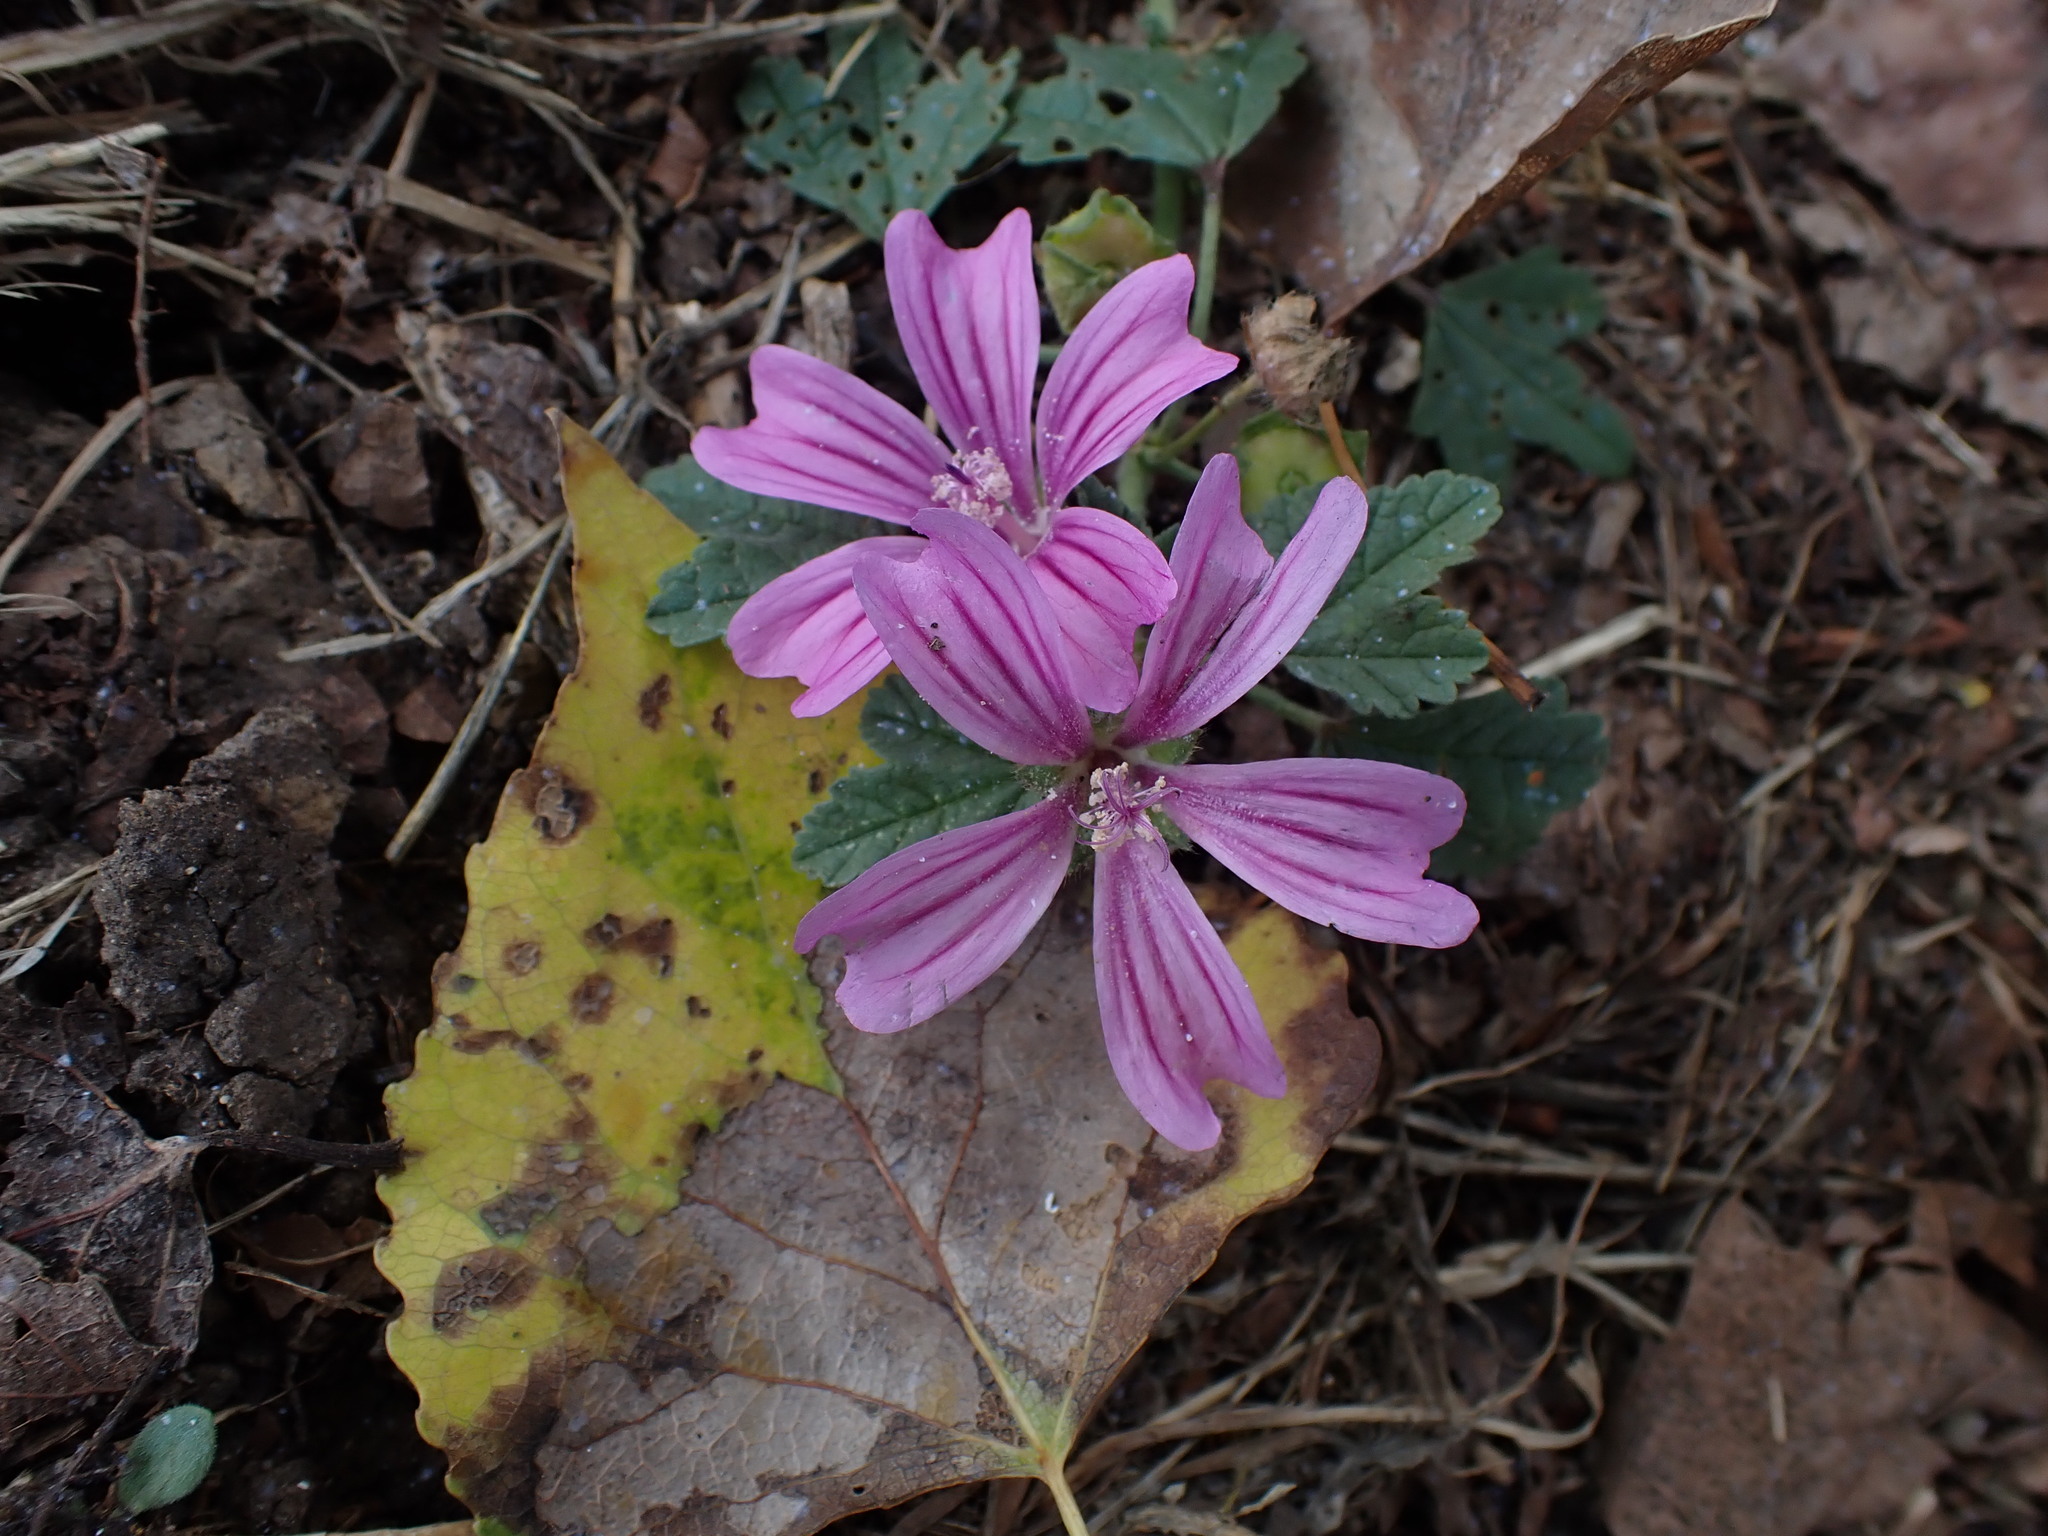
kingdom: Plantae
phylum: Tracheophyta
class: Magnoliopsida
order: Malvales
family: Malvaceae
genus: Malva
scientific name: Malva sylvestris
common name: Common mallow
